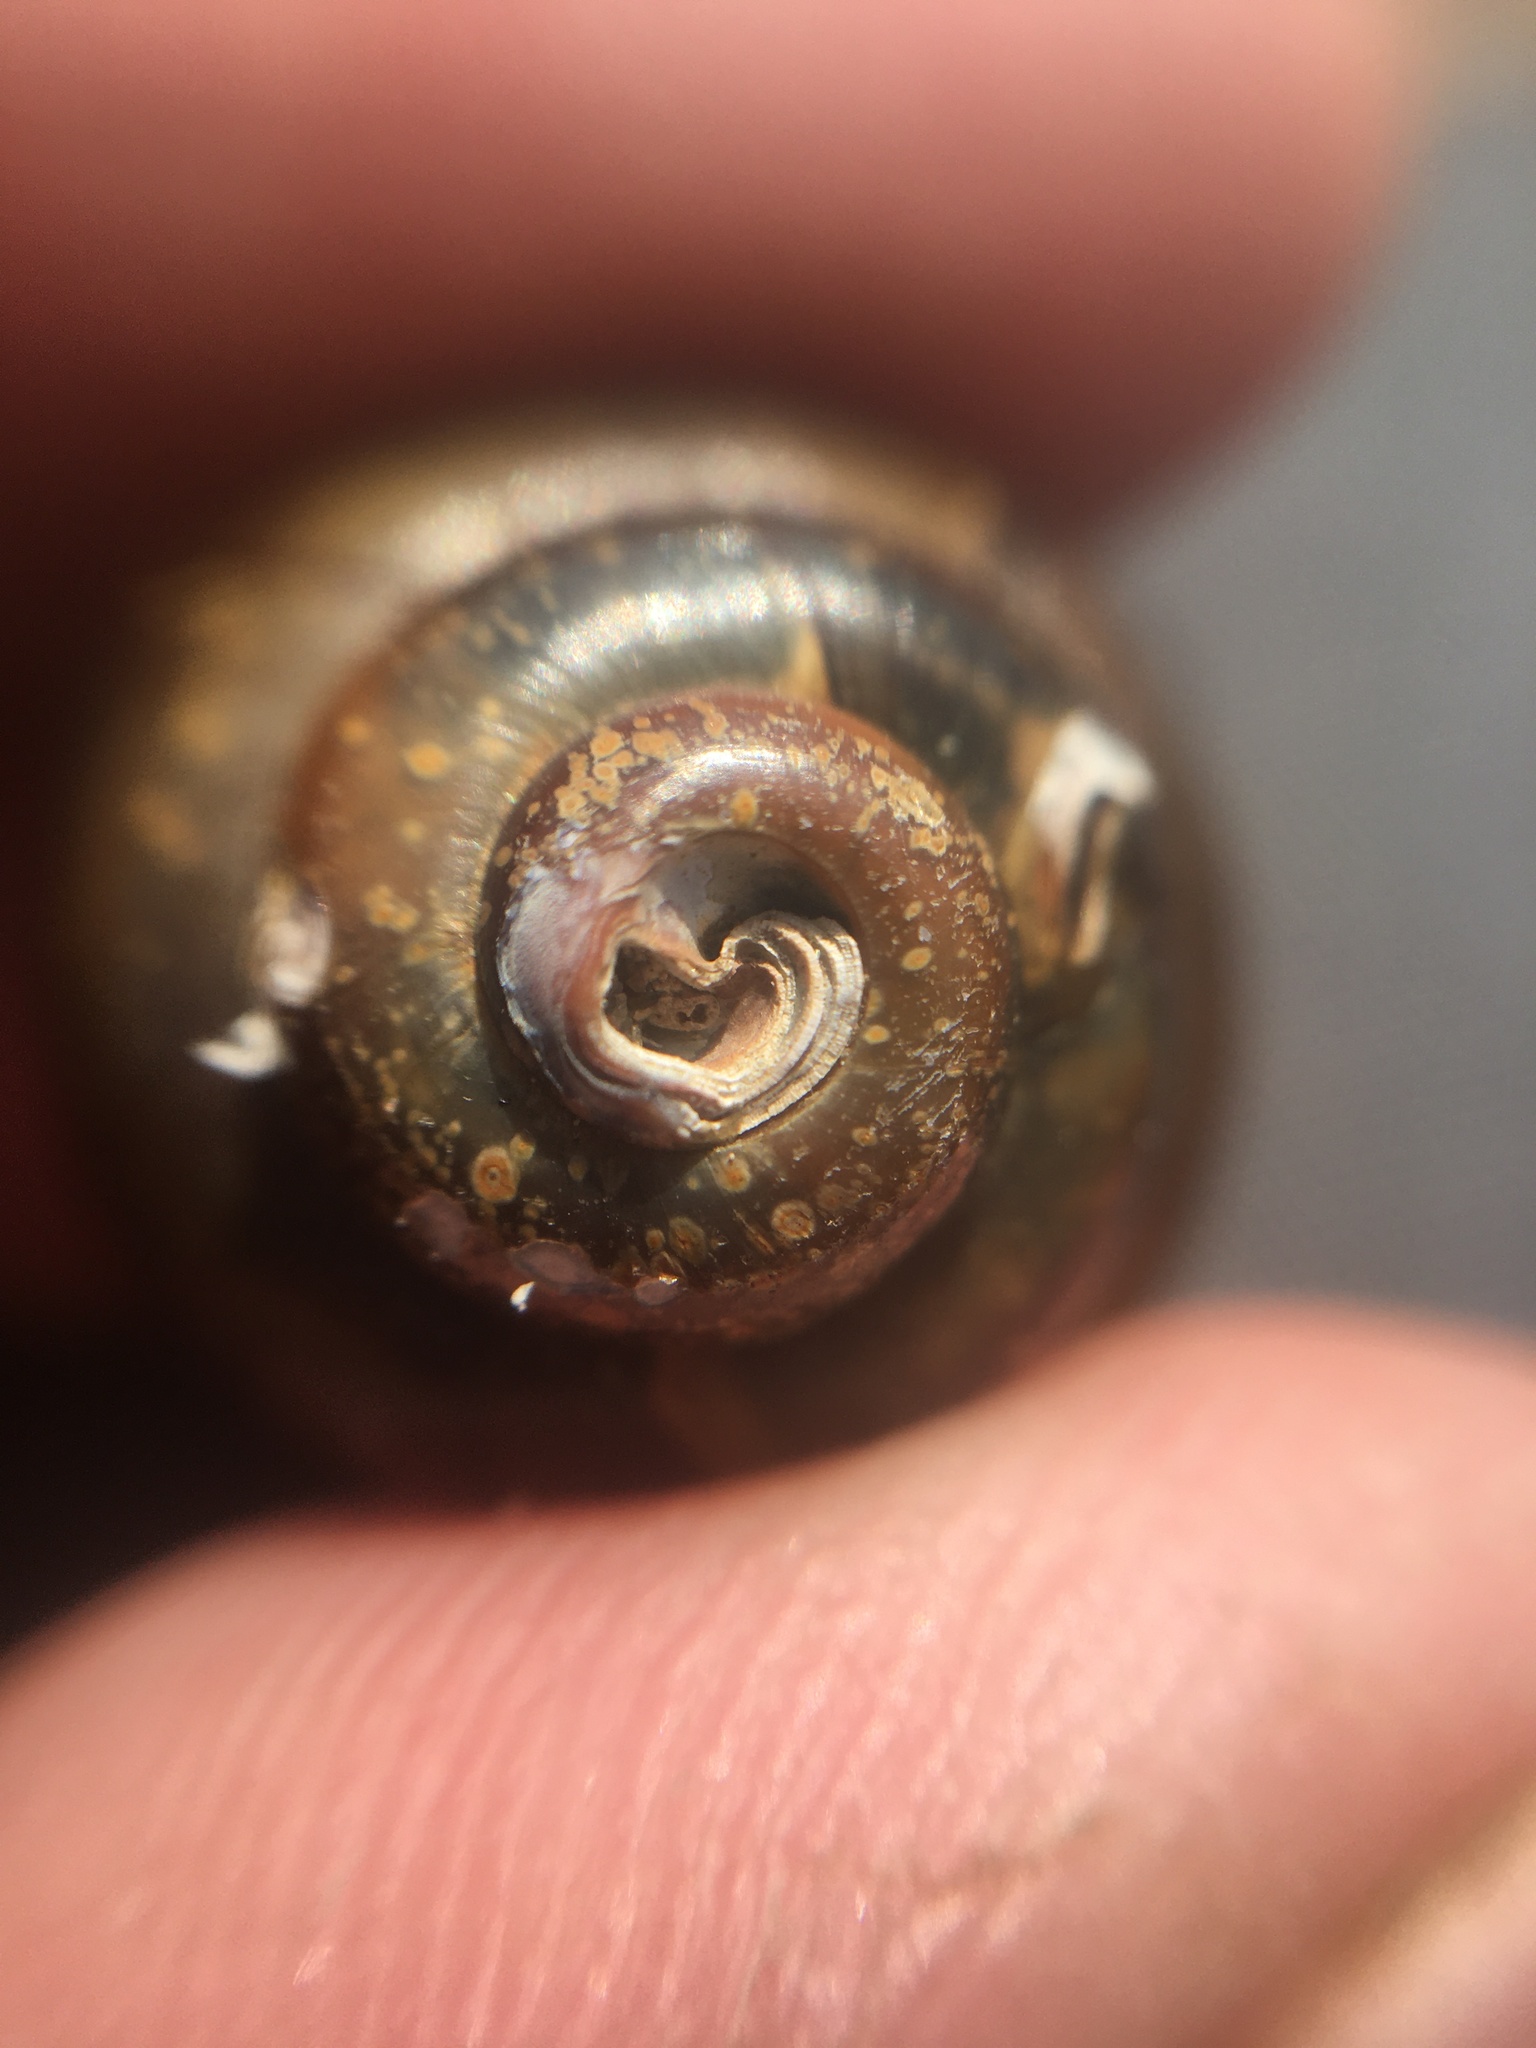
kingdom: Animalia
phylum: Mollusca
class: Gastropoda
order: Architaenioglossa
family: Viviparidae
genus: Viviparus
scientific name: Viviparus contectus
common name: Lister's river snail
